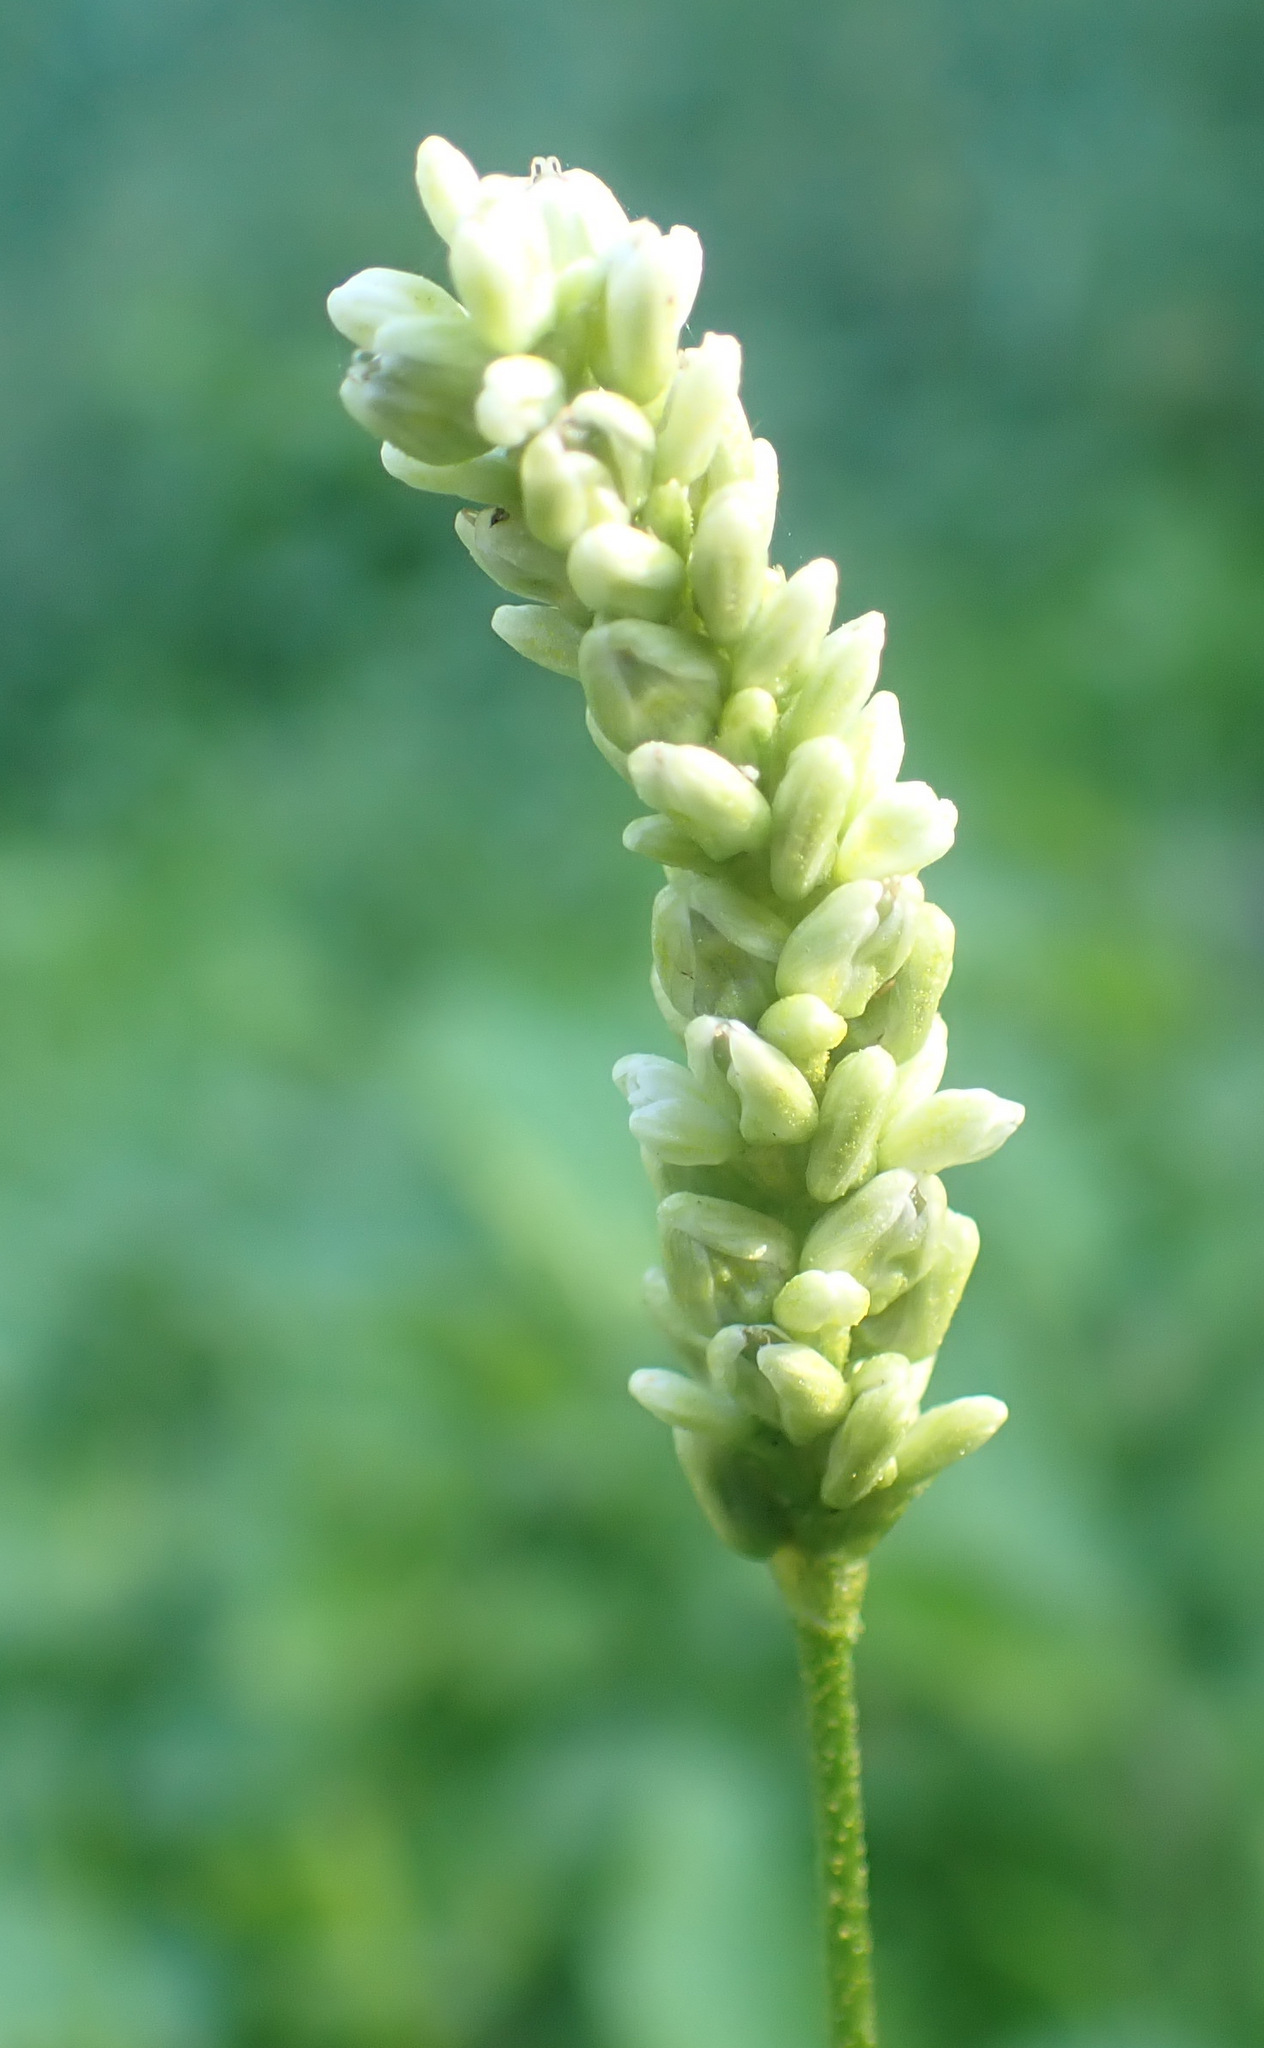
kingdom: Plantae
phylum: Tracheophyta
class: Magnoliopsida
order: Caryophyllales
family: Polygonaceae
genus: Persicaria
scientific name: Persicaria lapathifolia
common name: Curlytop knotweed
